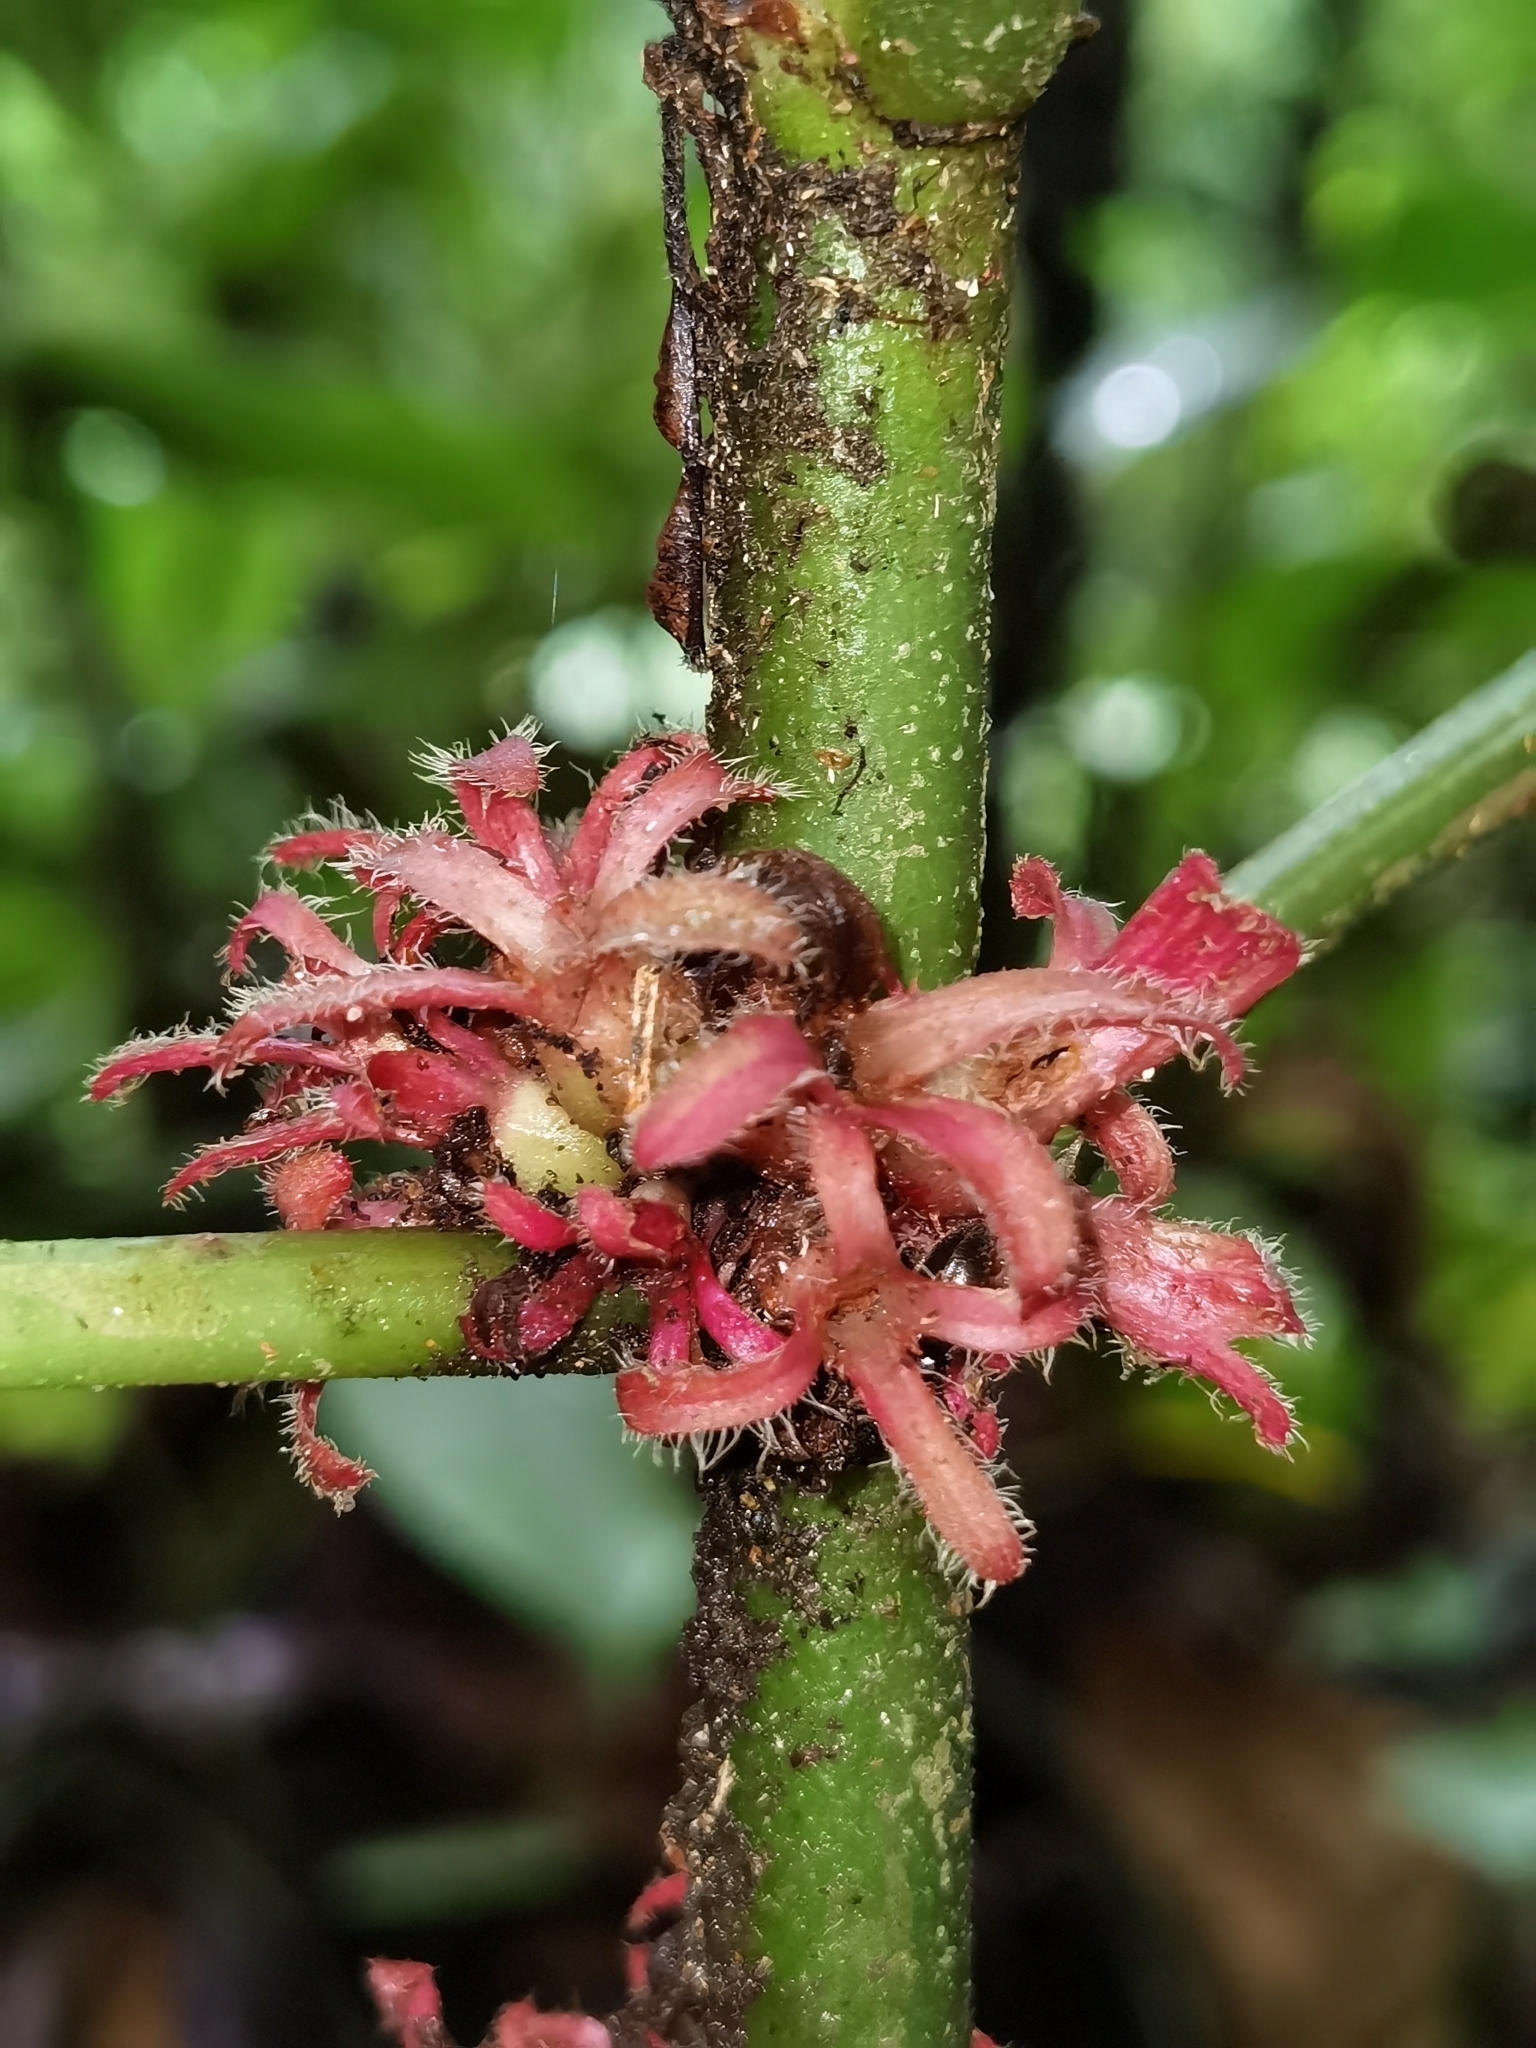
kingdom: Plantae
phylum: Tracheophyta
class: Magnoliopsida
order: Gentianales
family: Rubiaceae
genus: Hoffmannia
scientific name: Hoffmannia congesta
